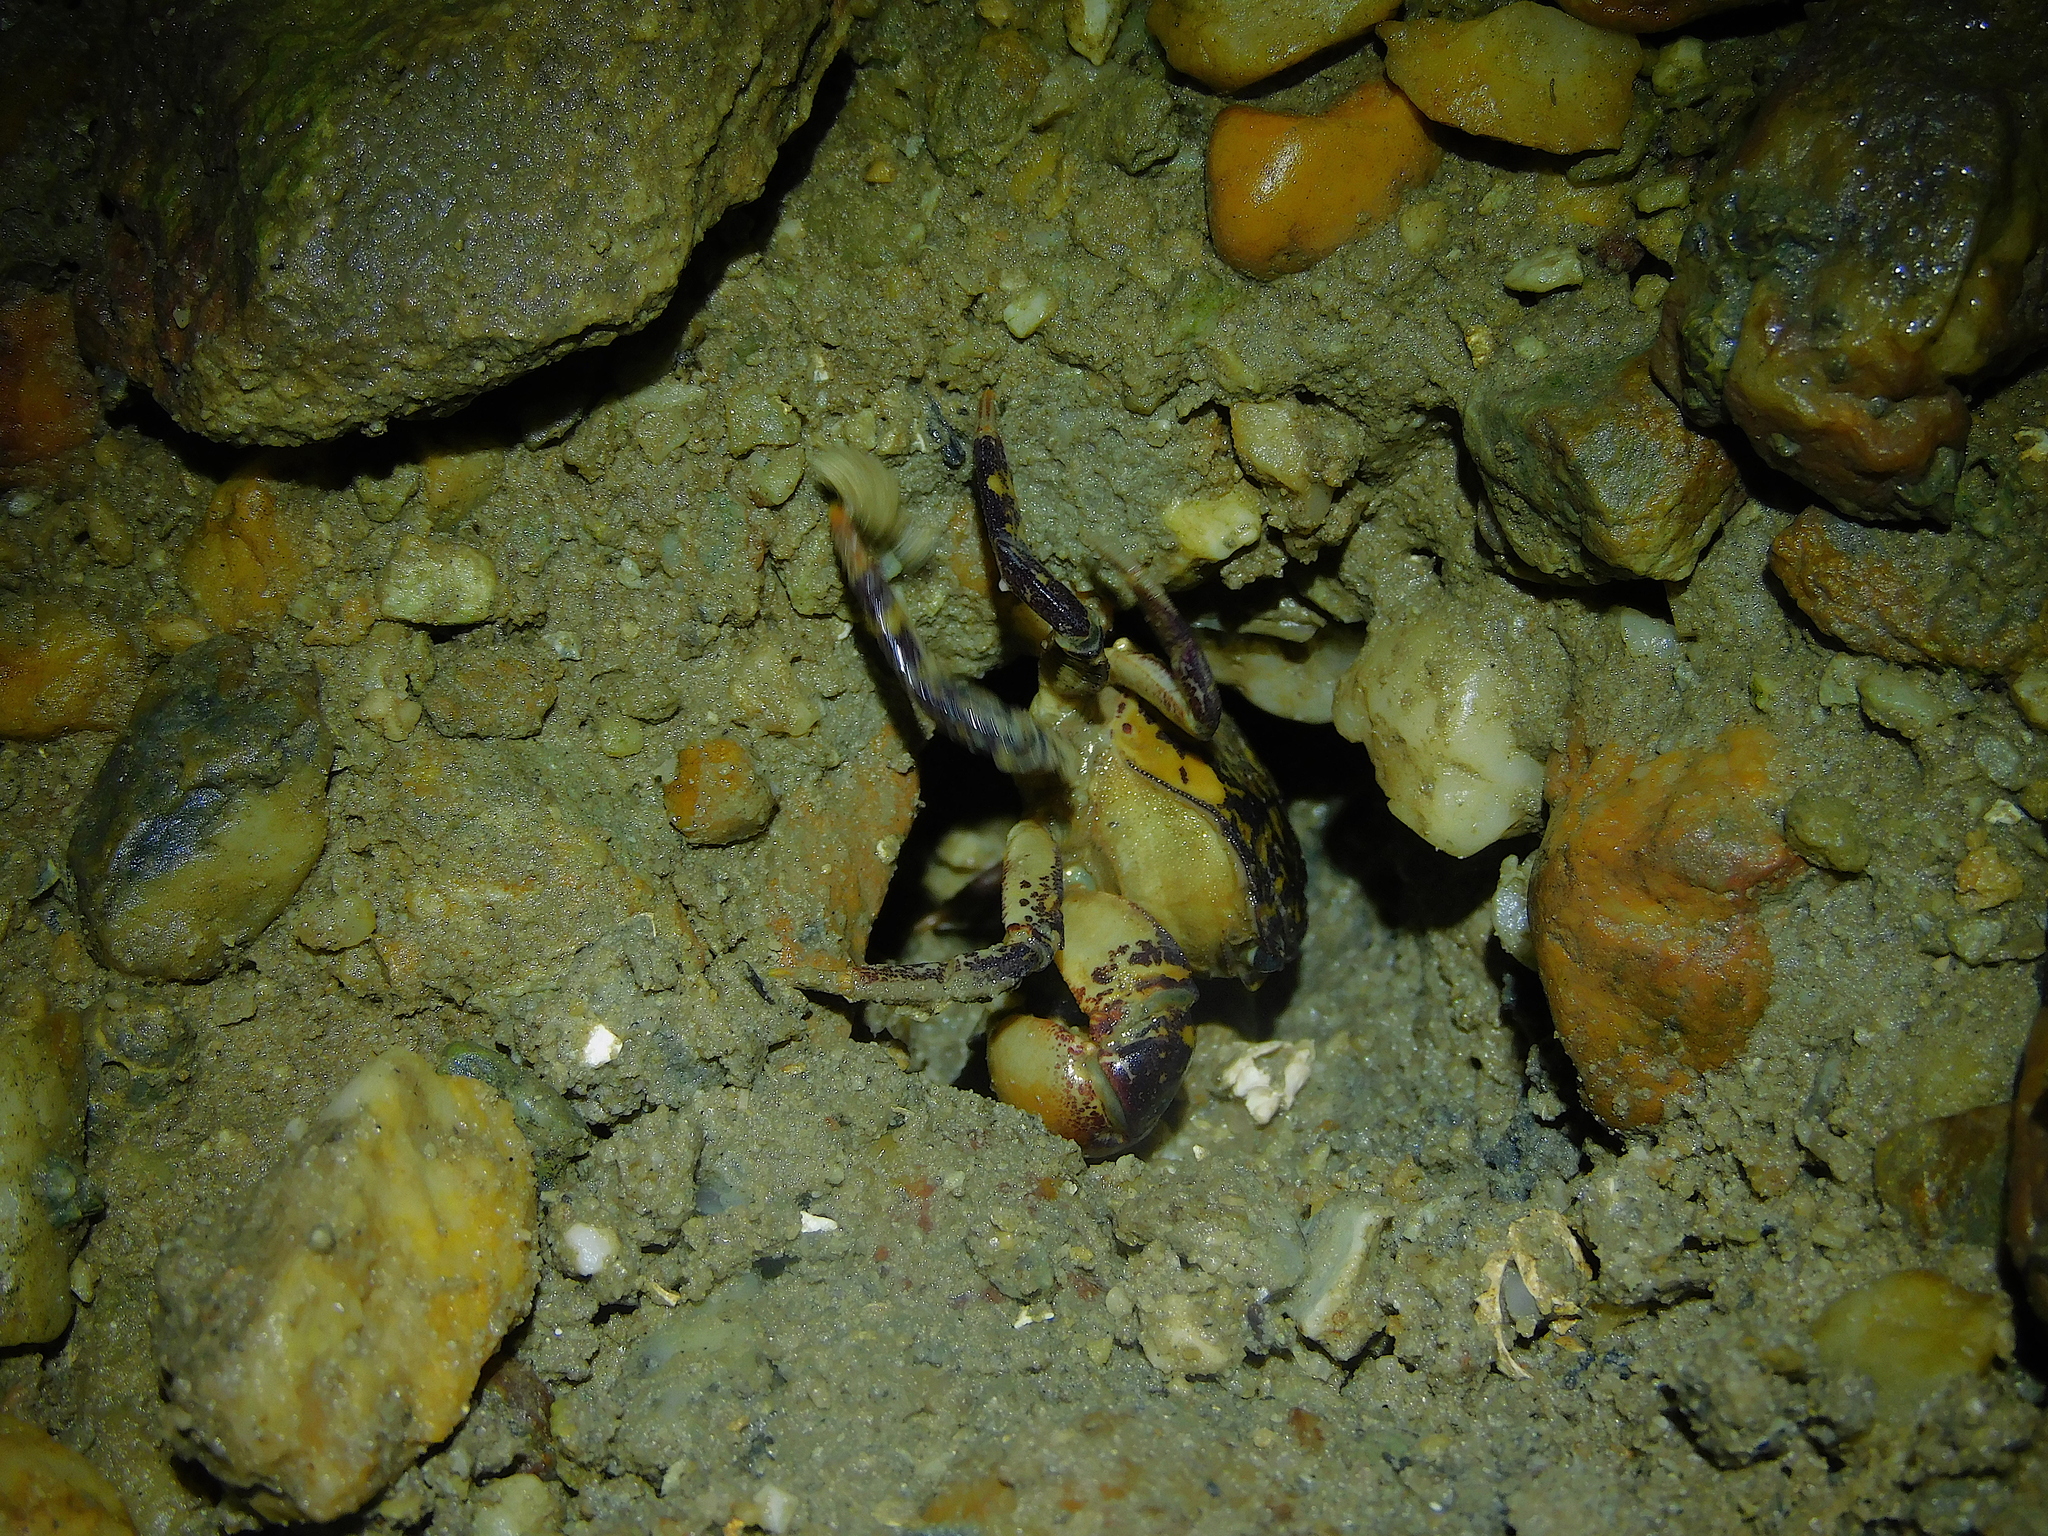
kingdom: Animalia
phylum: Arthropoda
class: Malacostraca
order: Decapoda
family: Varunidae
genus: Paragrapsus
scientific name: Paragrapsus laevis
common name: Smooth shore crab
